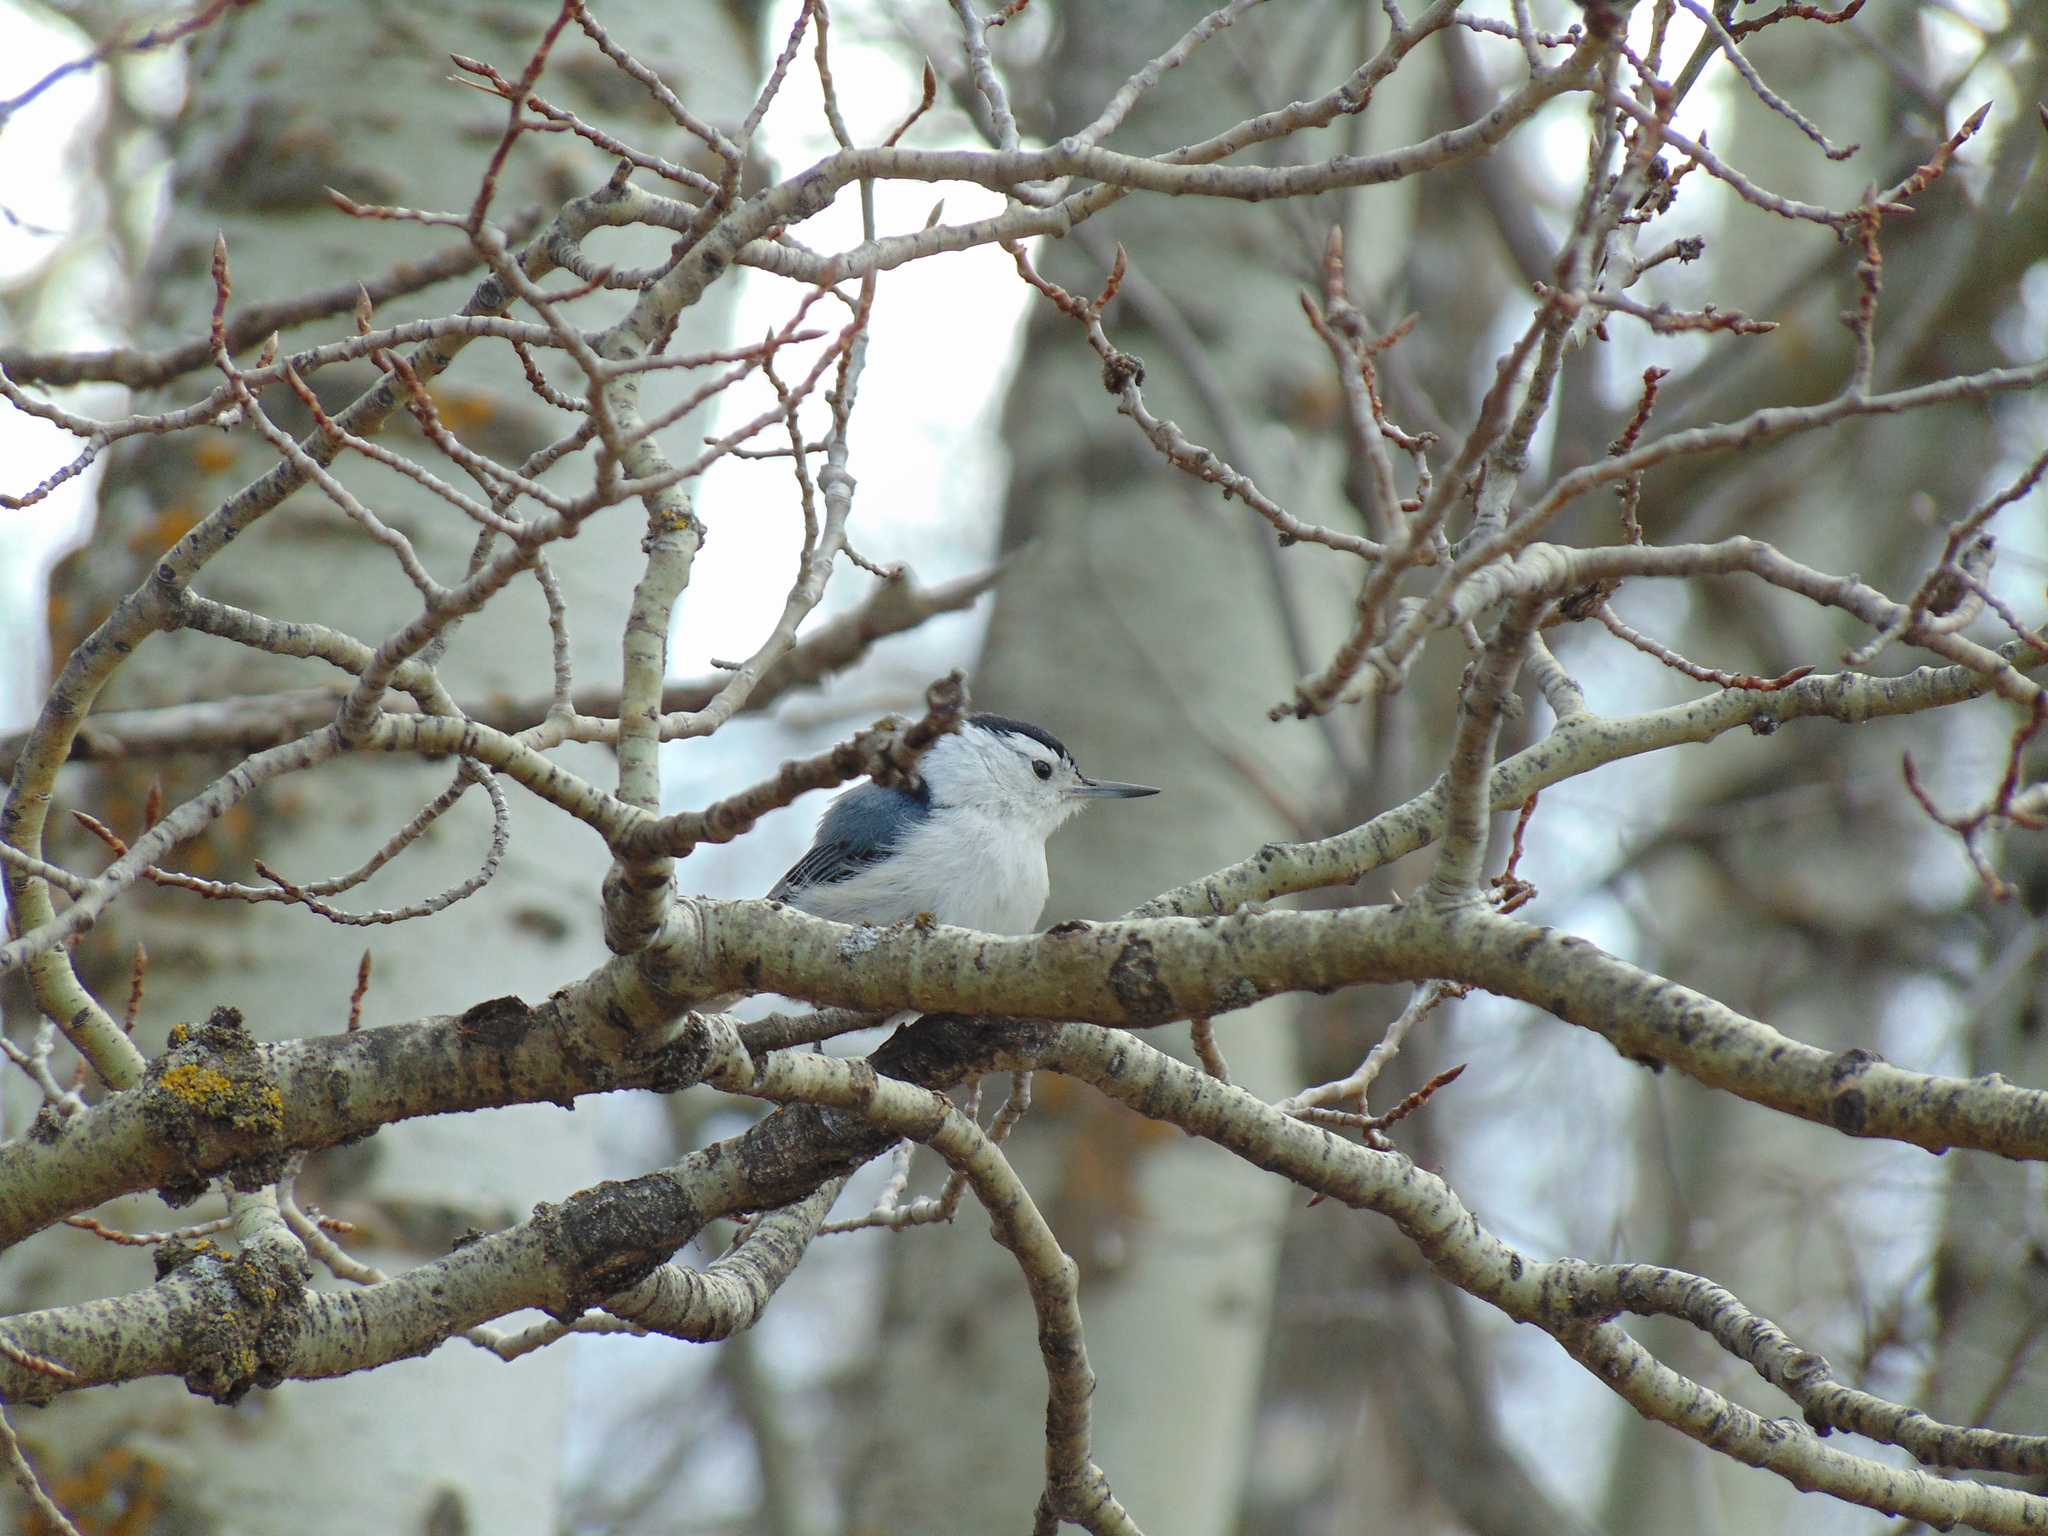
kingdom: Animalia
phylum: Chordata
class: Aves
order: Passeriformes
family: Sittidae
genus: Sitta
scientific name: Sitta carolinensis
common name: White-breasted nuthatch
